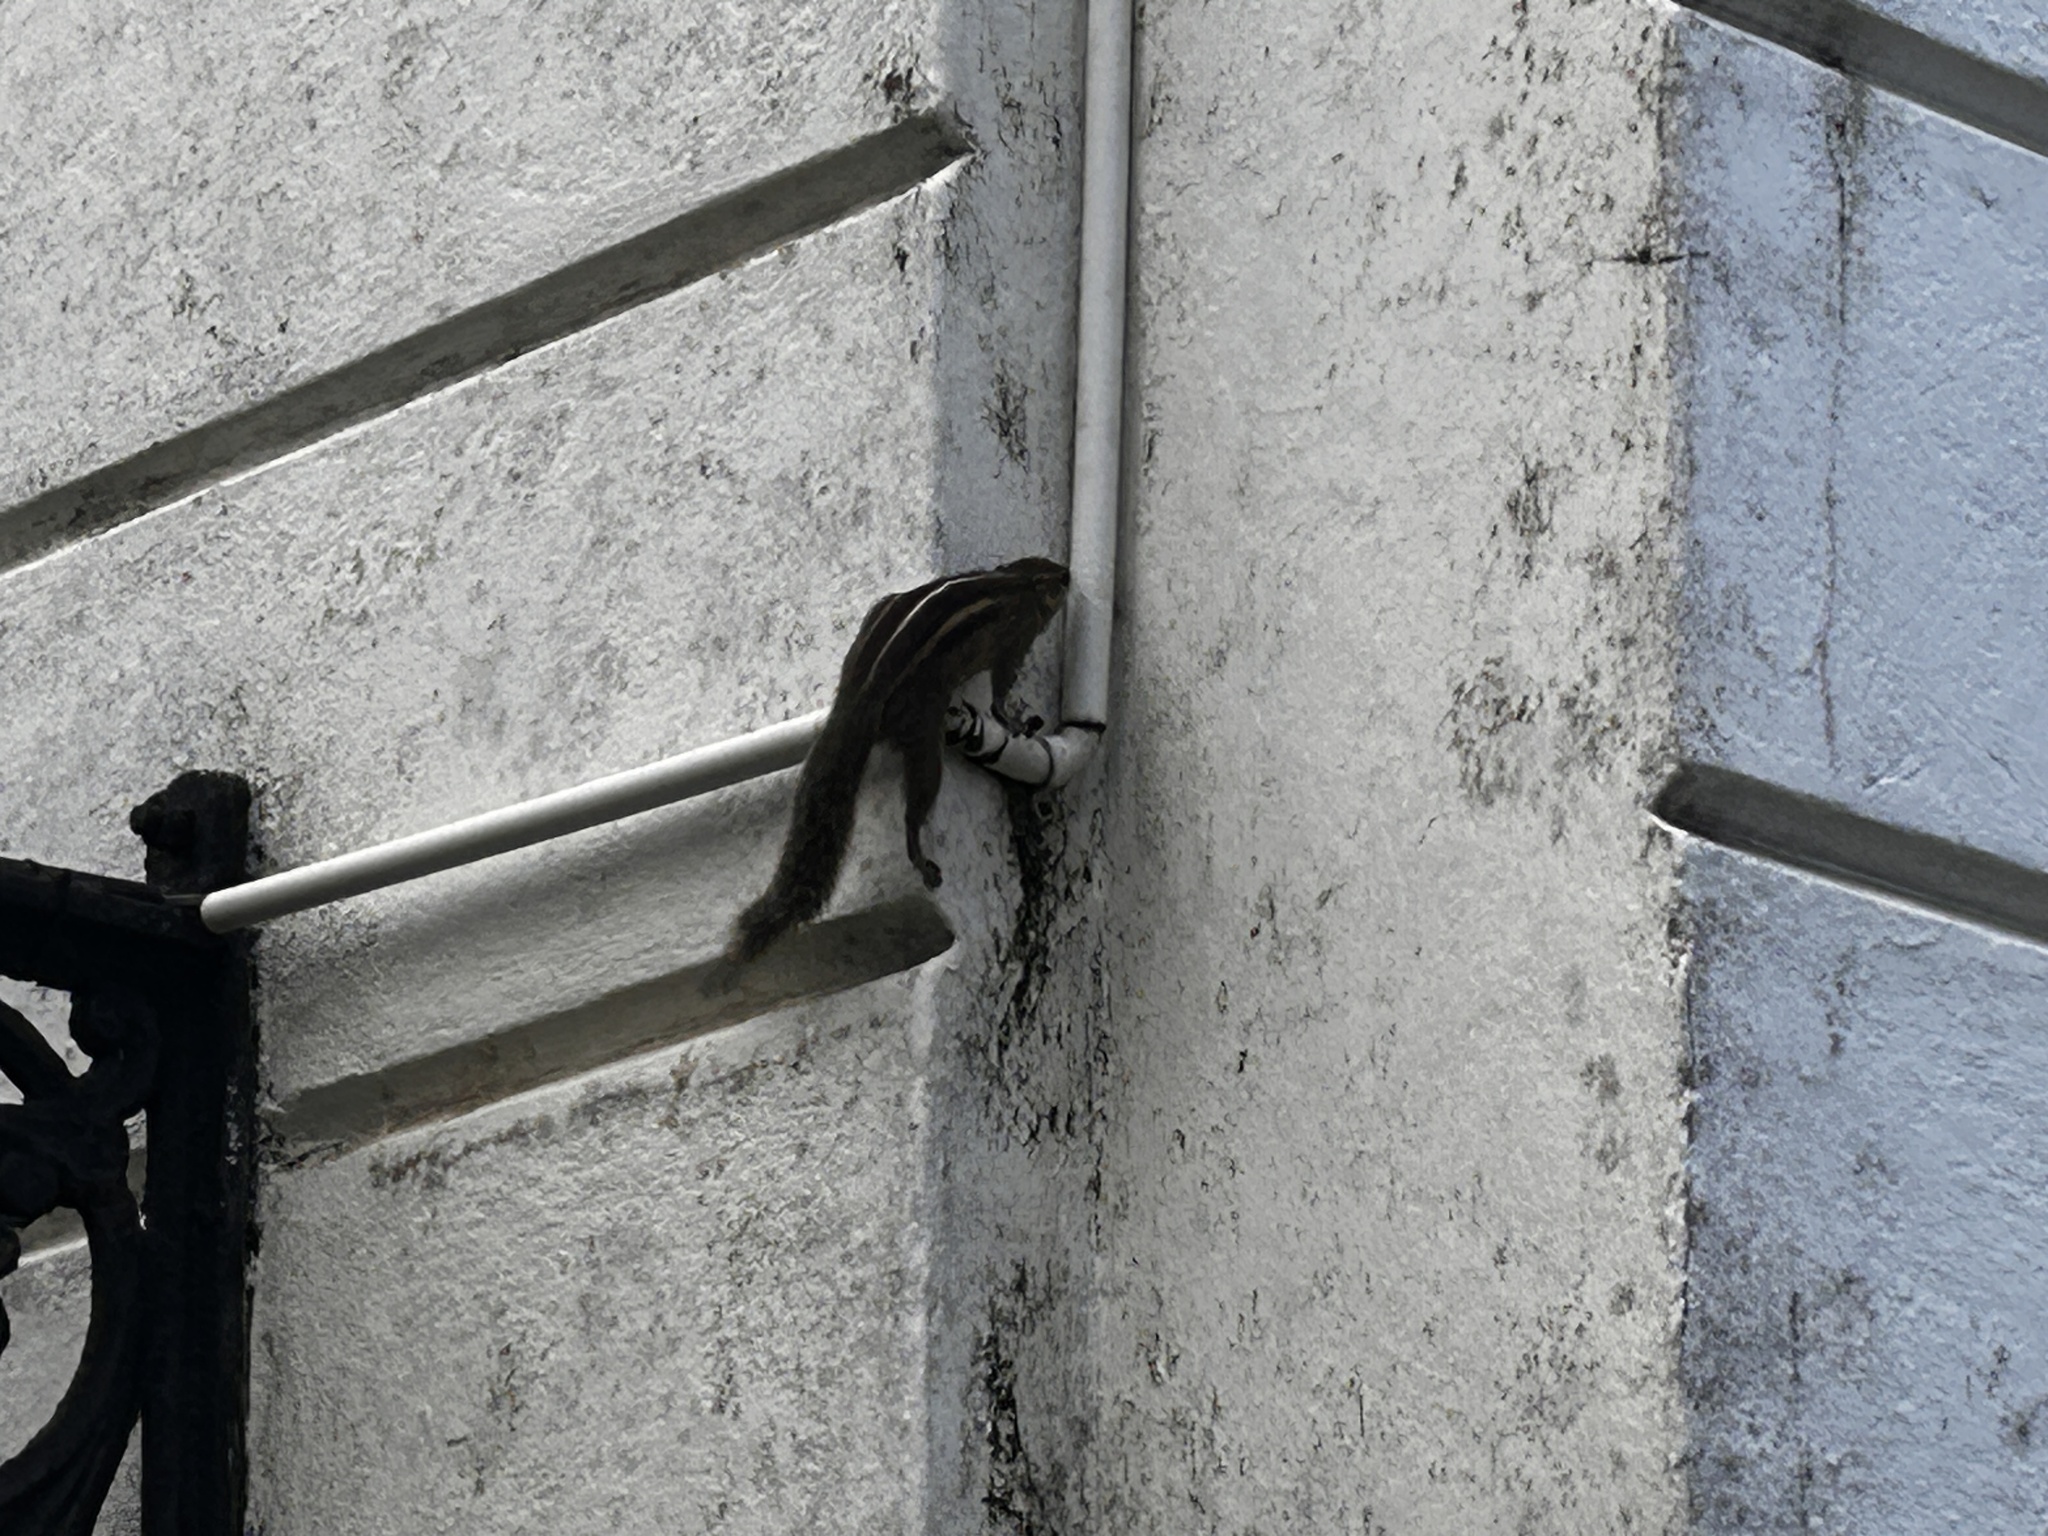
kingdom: Animalia
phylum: Chordata
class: Mammalia
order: Rodentia
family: Sciuridae
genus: Funambulus
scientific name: Funambulus palmarum
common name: Indian palm squirrel
